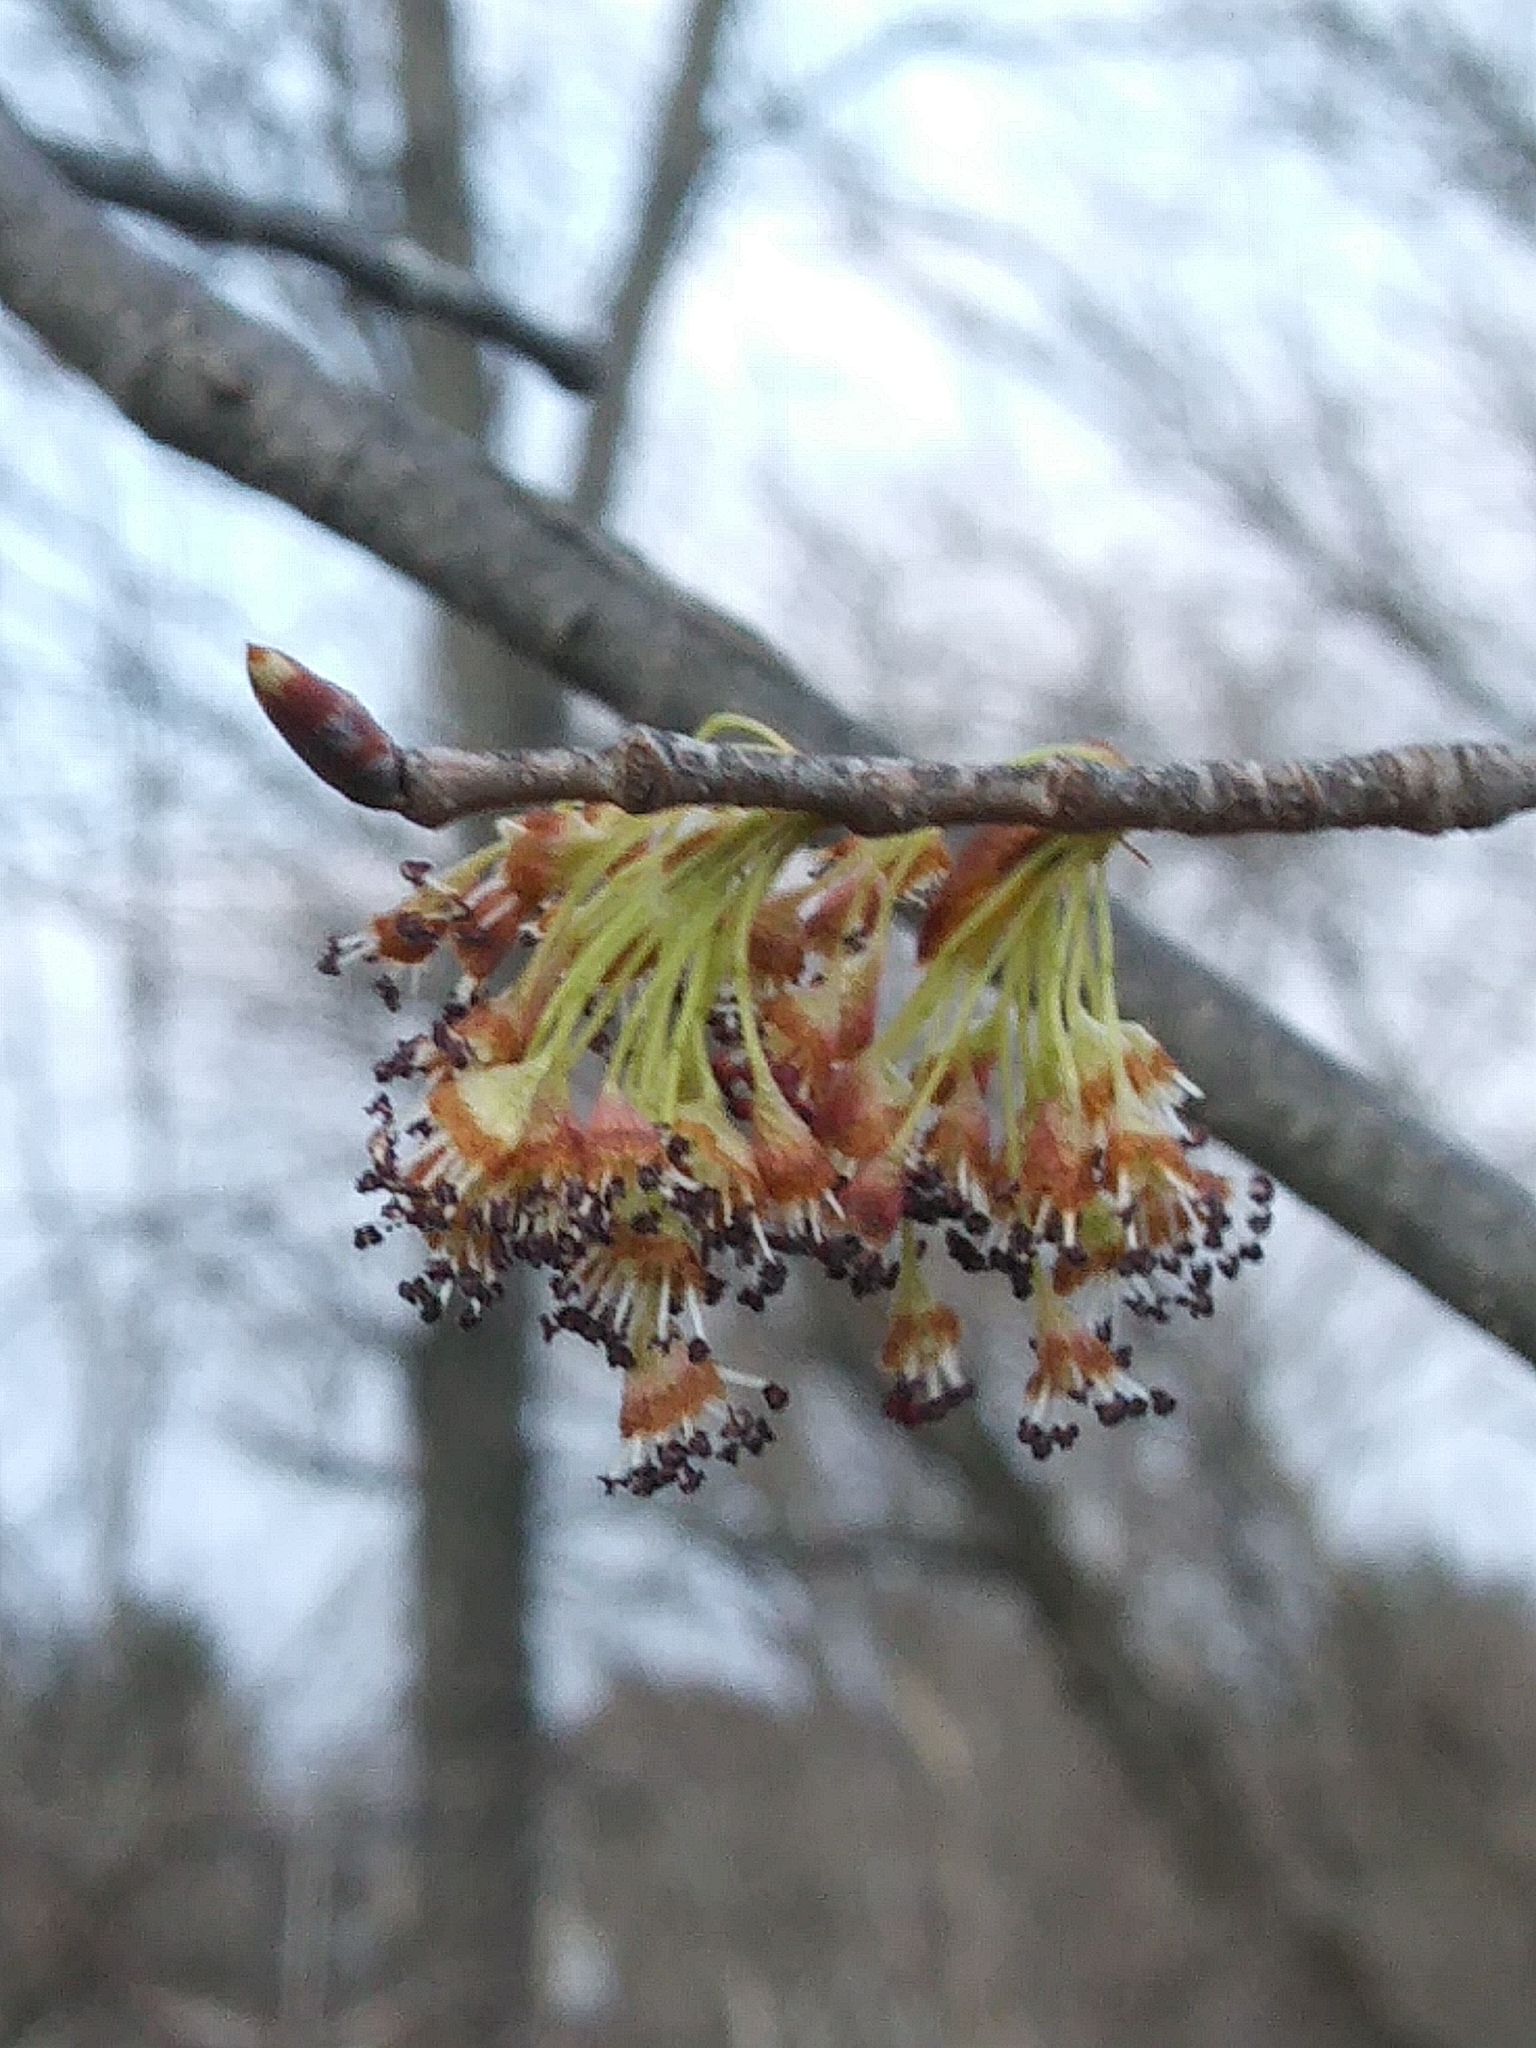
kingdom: Plantae
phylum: Tracheophyta
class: Magnoliopsida
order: Rosales
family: Ulmaceae
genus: Ulmus
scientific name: Ulmus americana
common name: American elm
